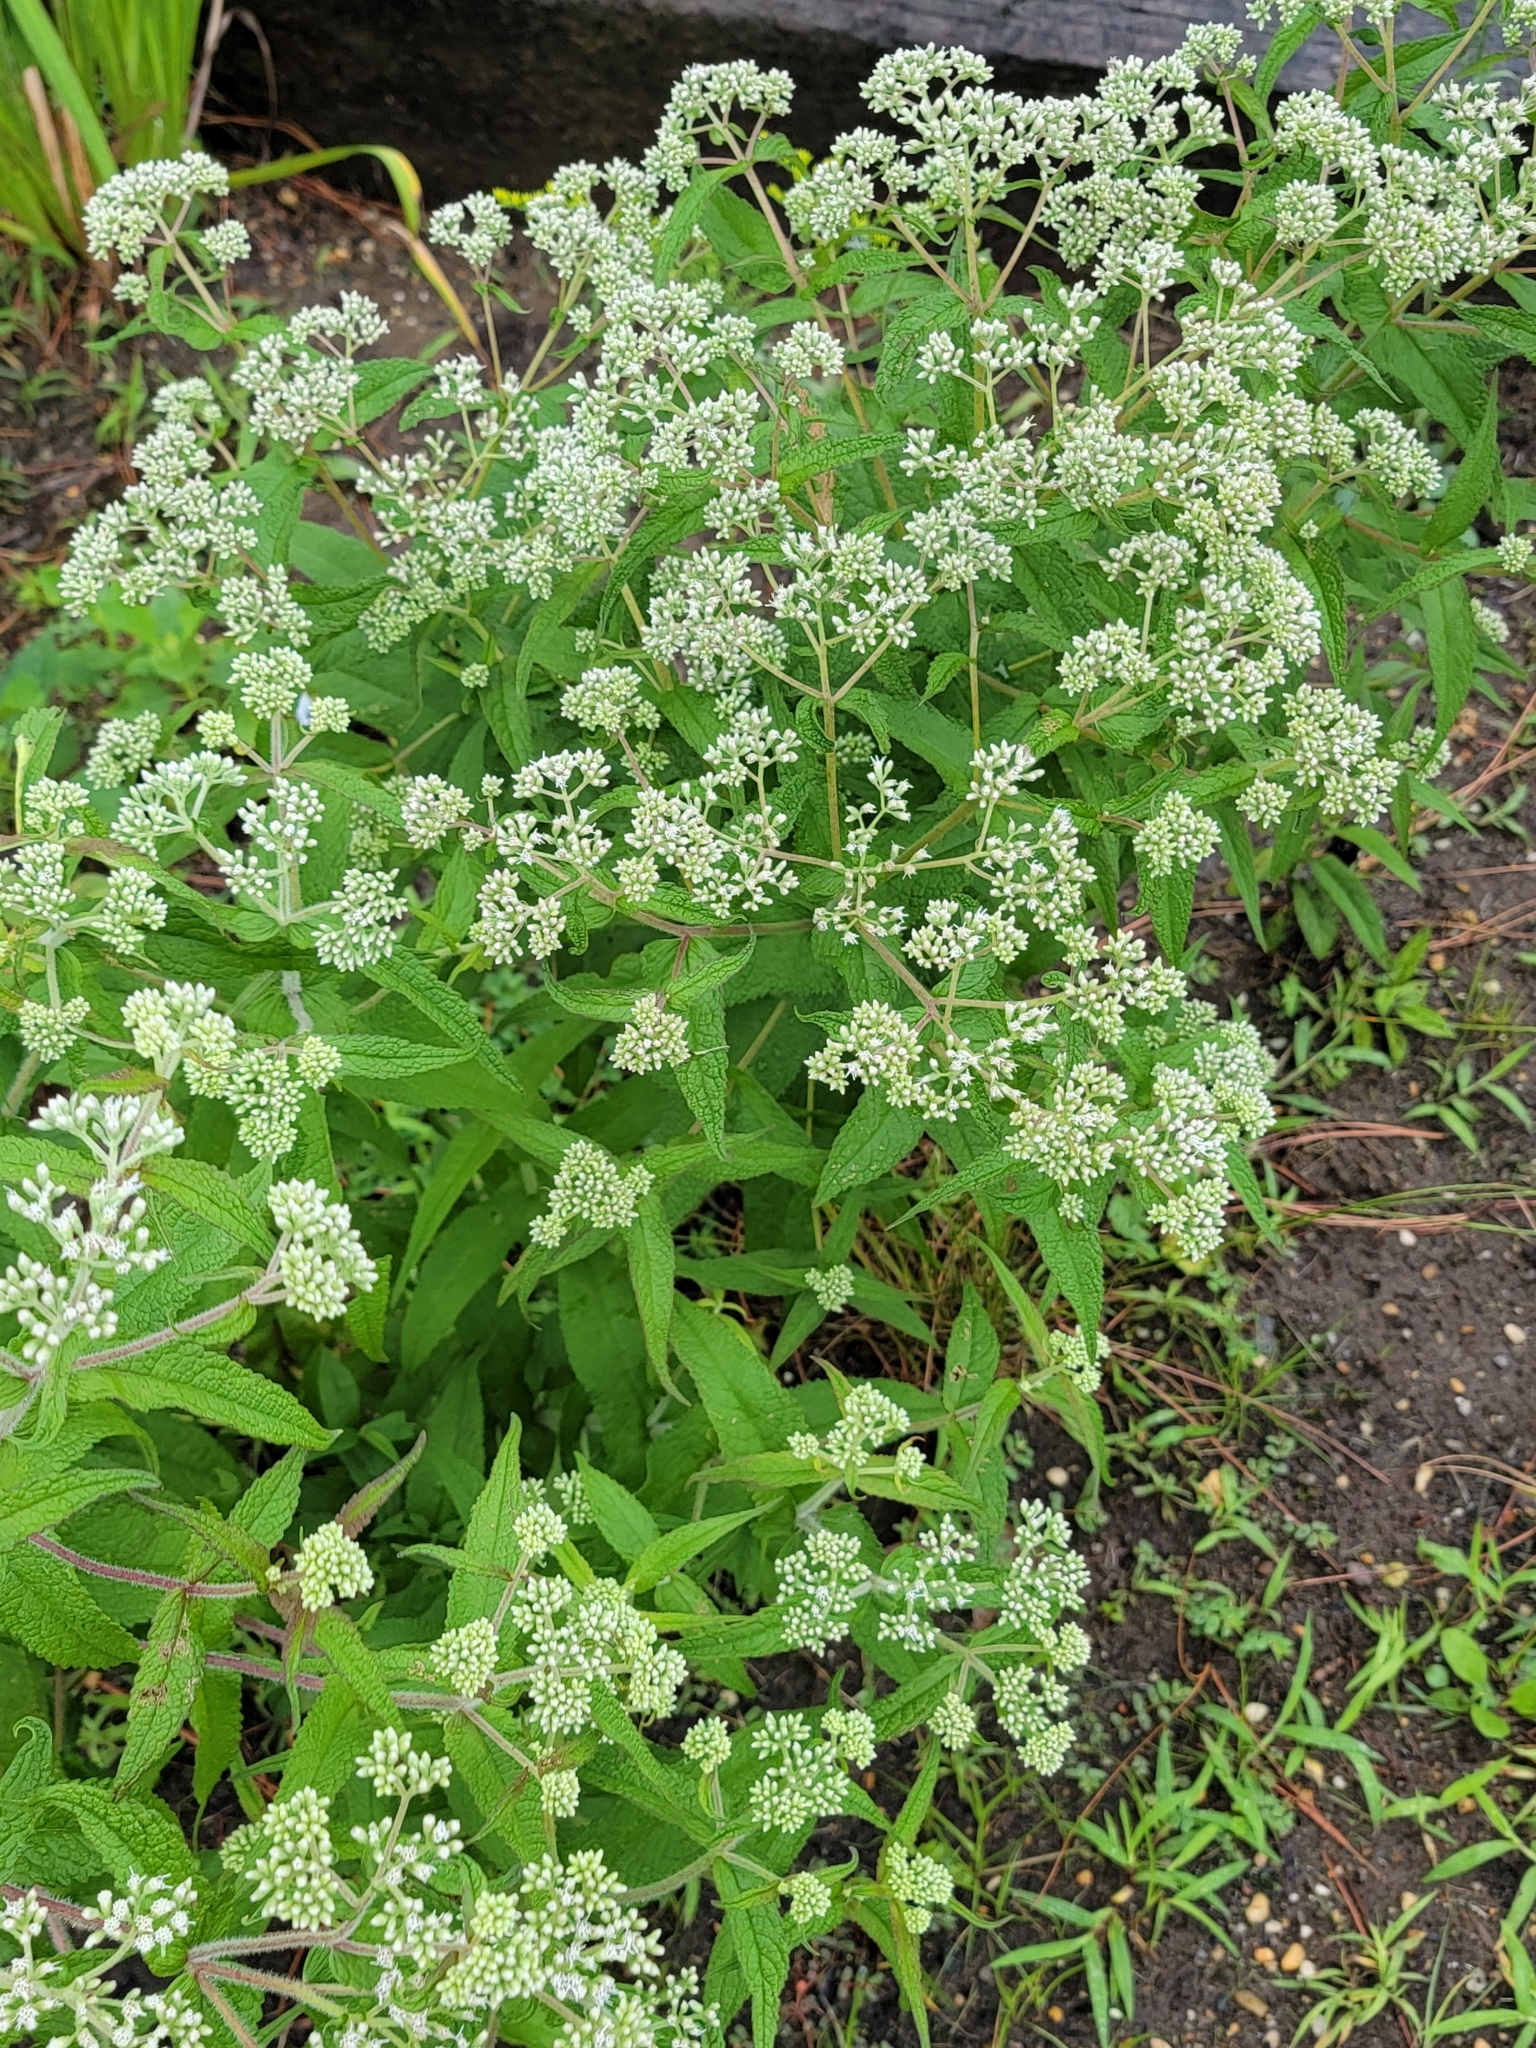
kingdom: Plantae
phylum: Tracheophyta
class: Magnoliopsida
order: Asterales
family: Asteraceae
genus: Eupatorium
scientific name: Eupatorium perfoliatum
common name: Boneset
